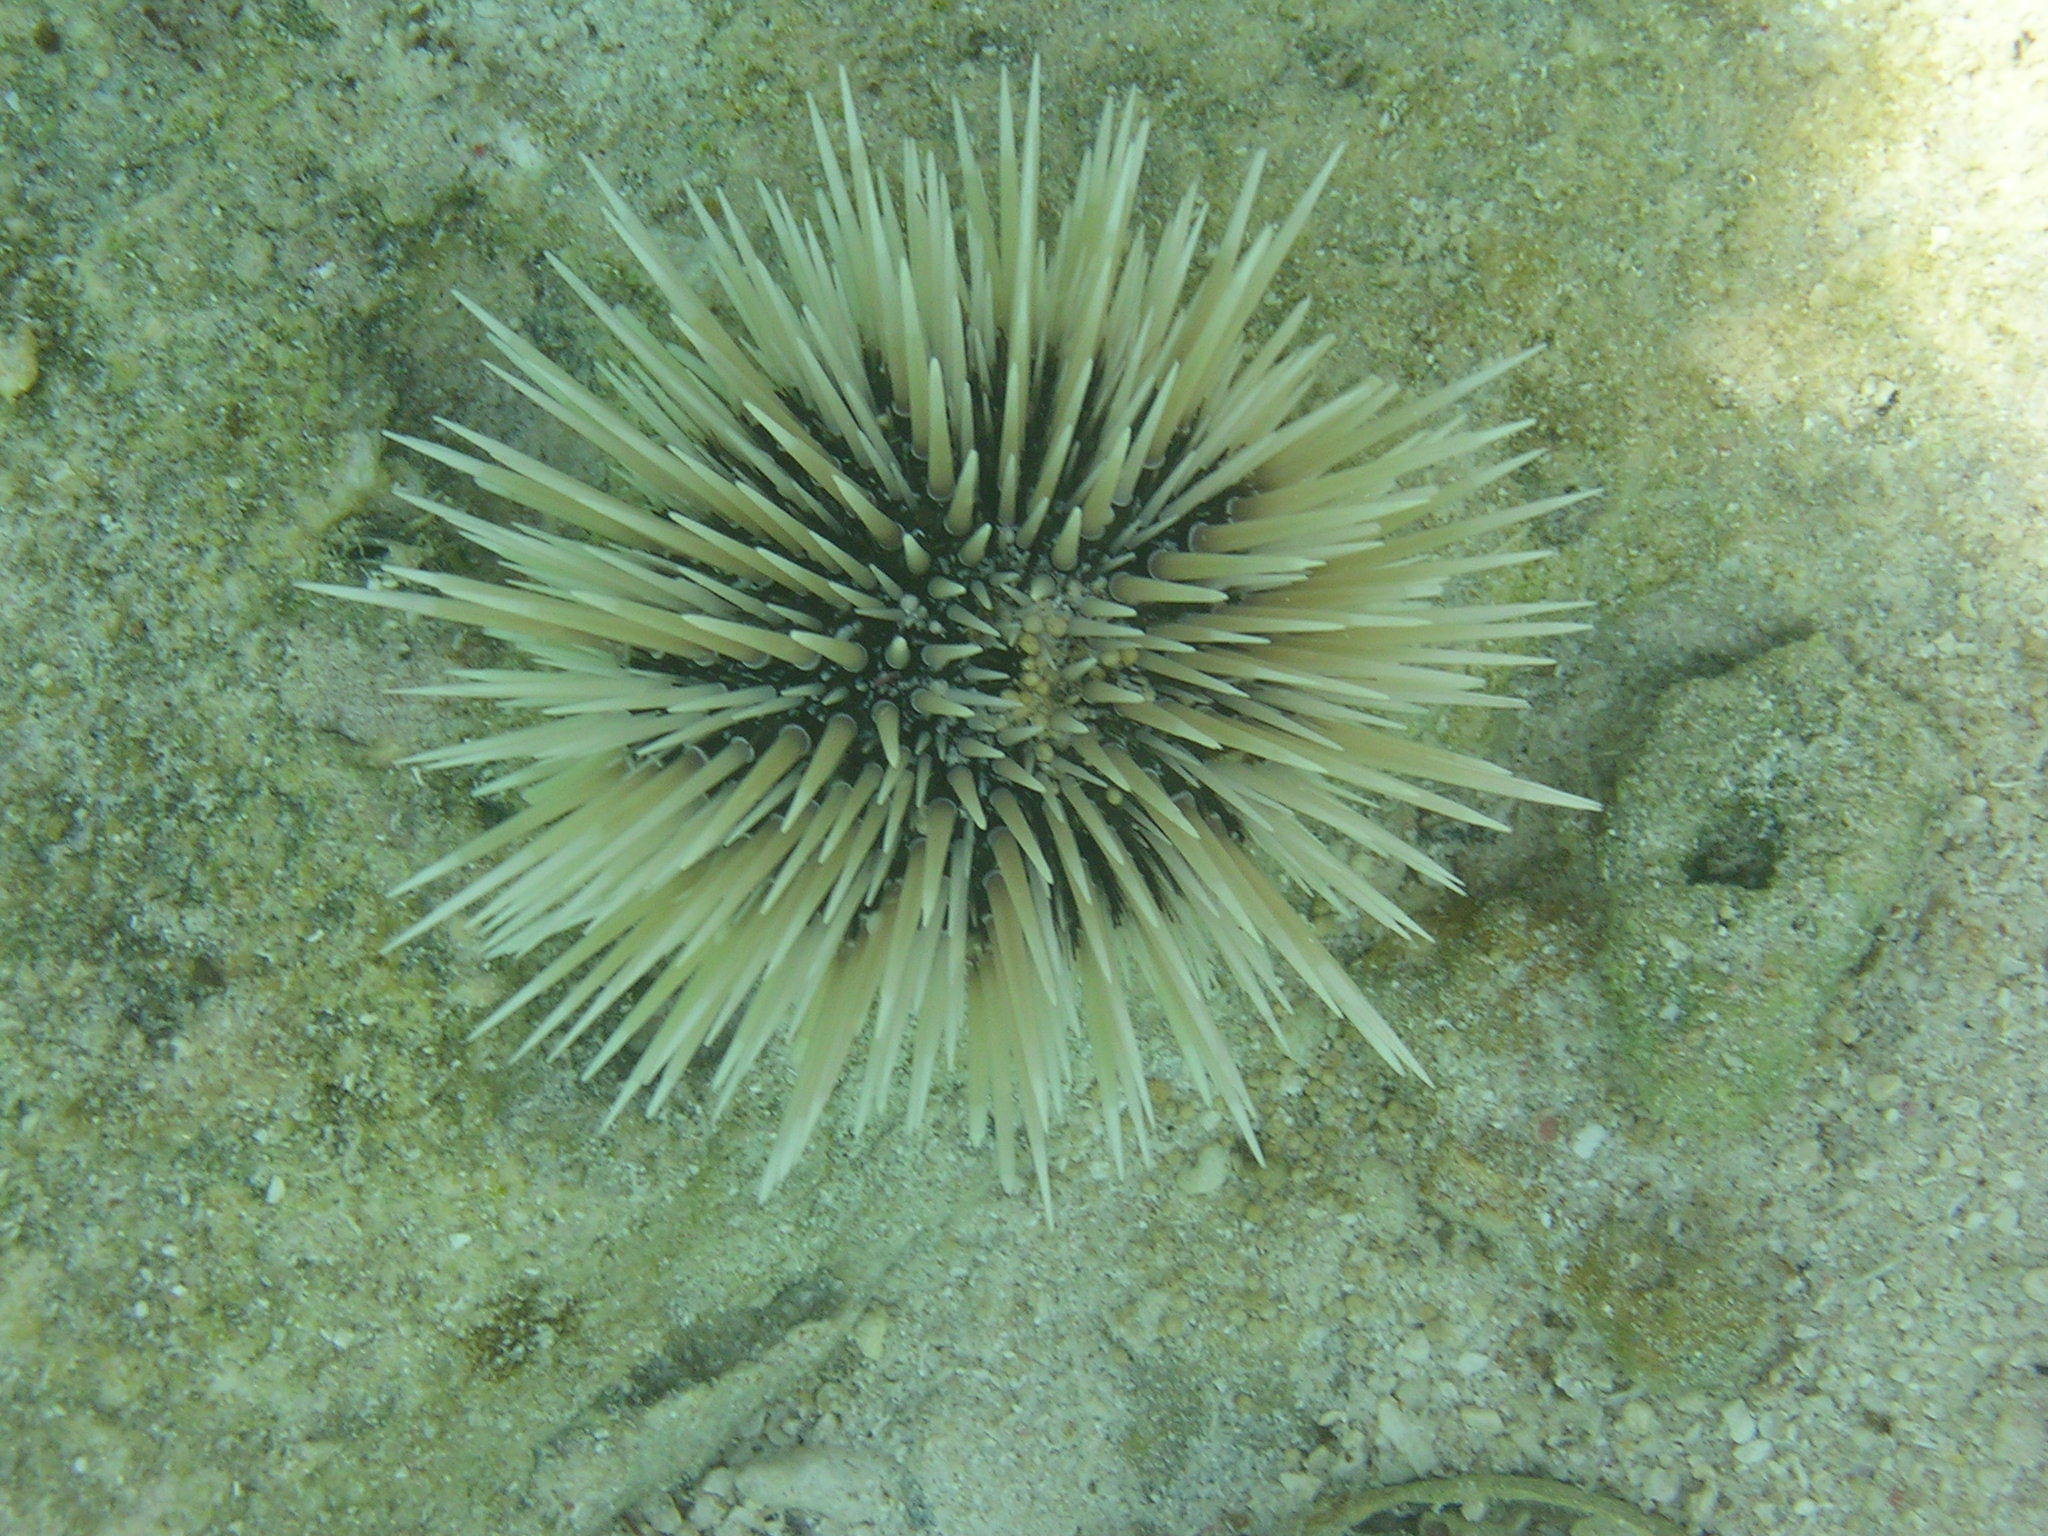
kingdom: Animalia
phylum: Echinodermata
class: Echinoidea
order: Camarodonta
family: Echinometridae
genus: Echinometra
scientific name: Echinometra mathaei
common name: Rock-boring urchin
